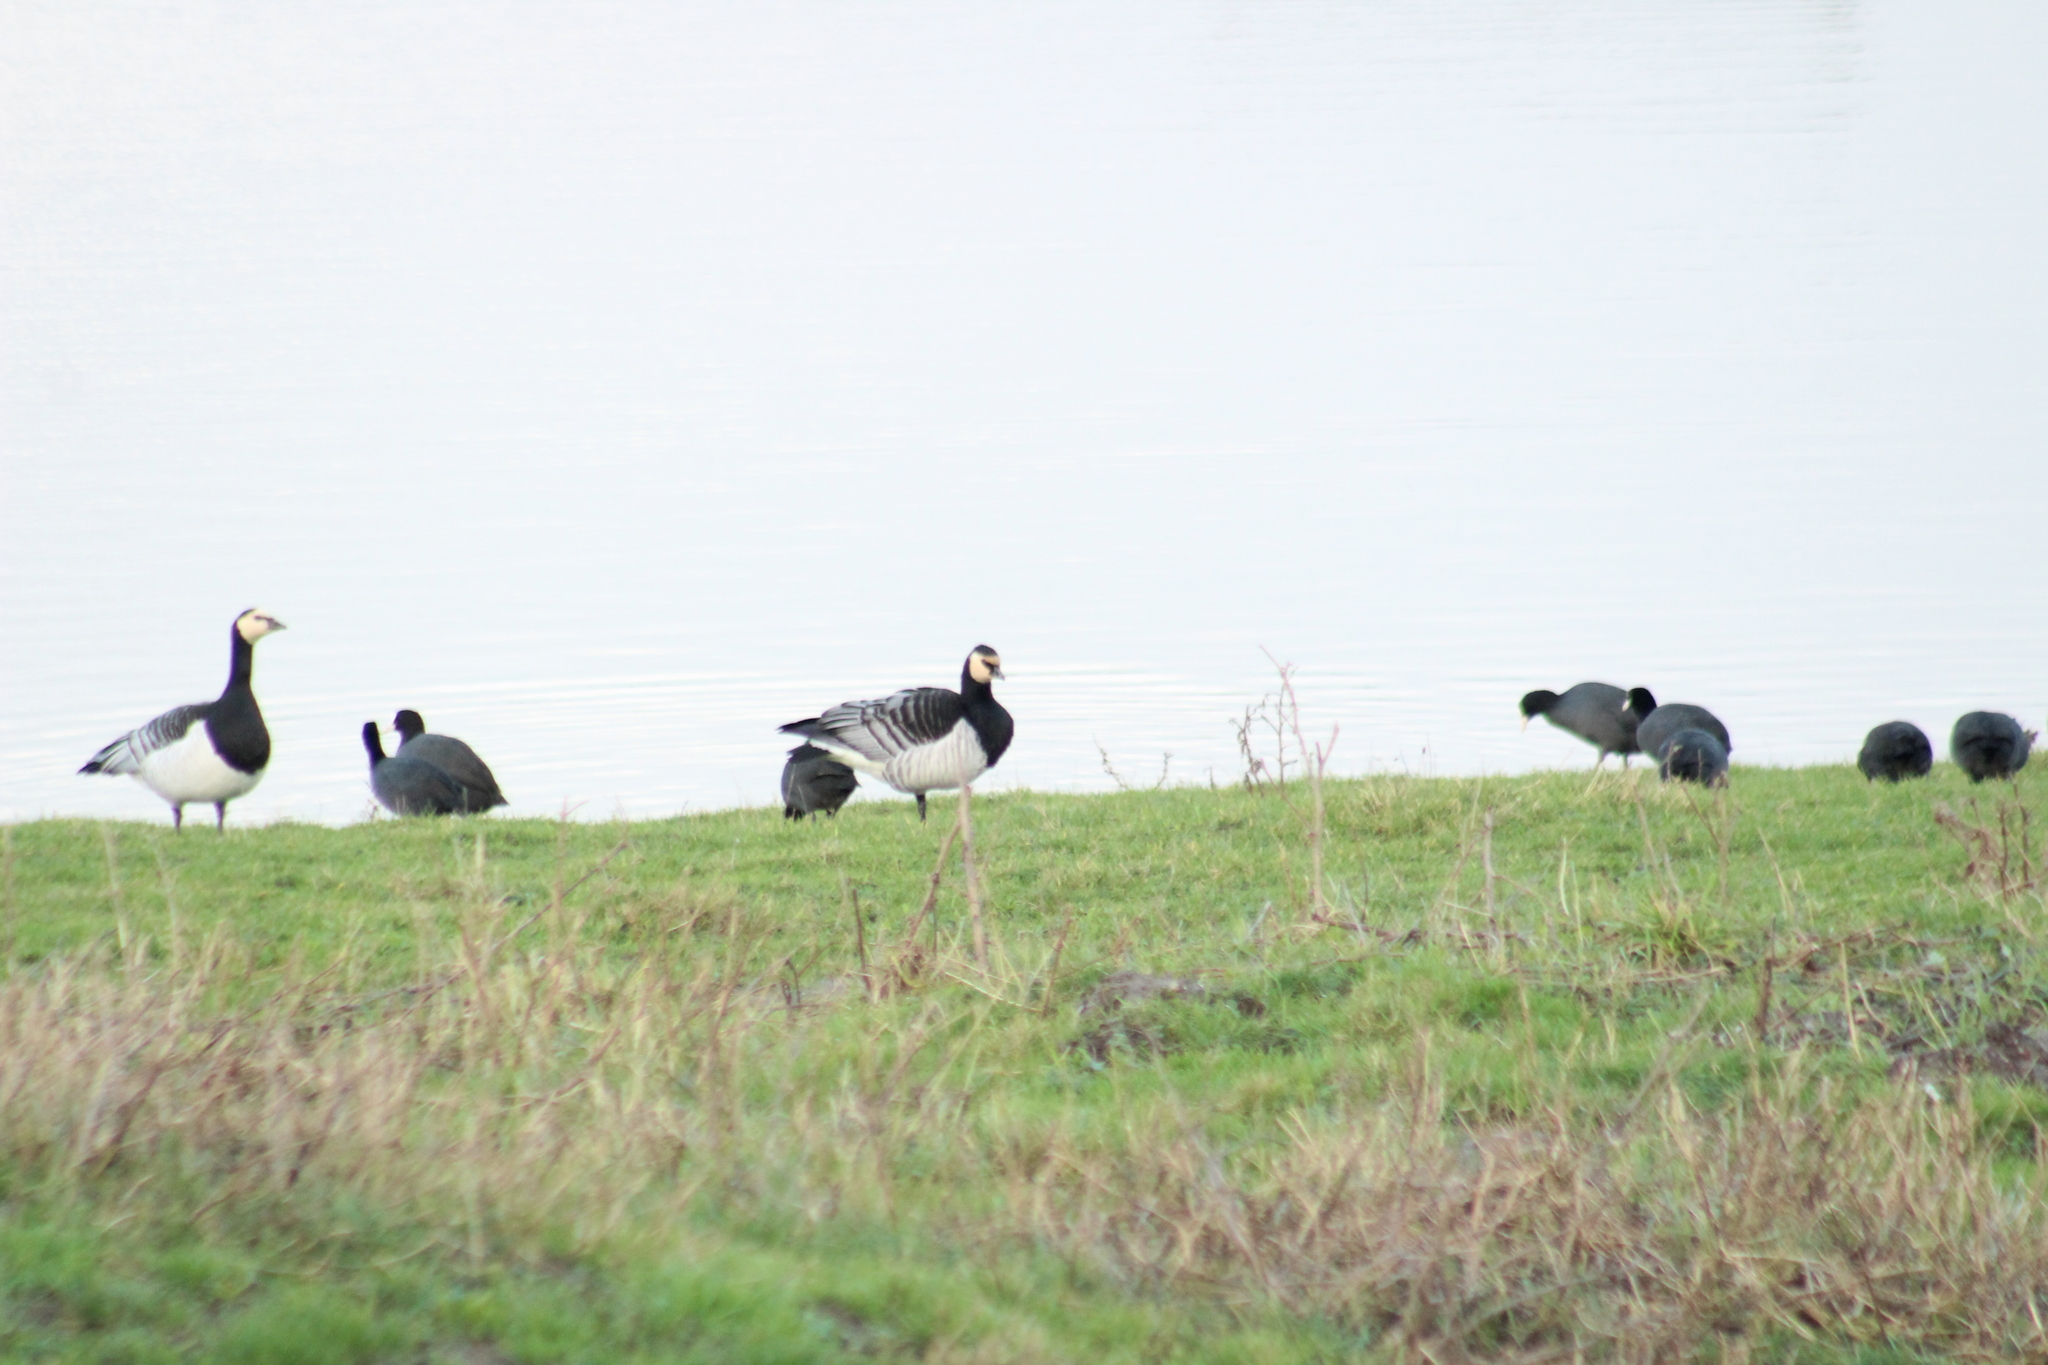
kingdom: Animalia
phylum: Chordata
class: Aves
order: Anseriformes
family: Anatidae
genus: Branta
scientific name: Branta leucopsis
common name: Barnacle goose
